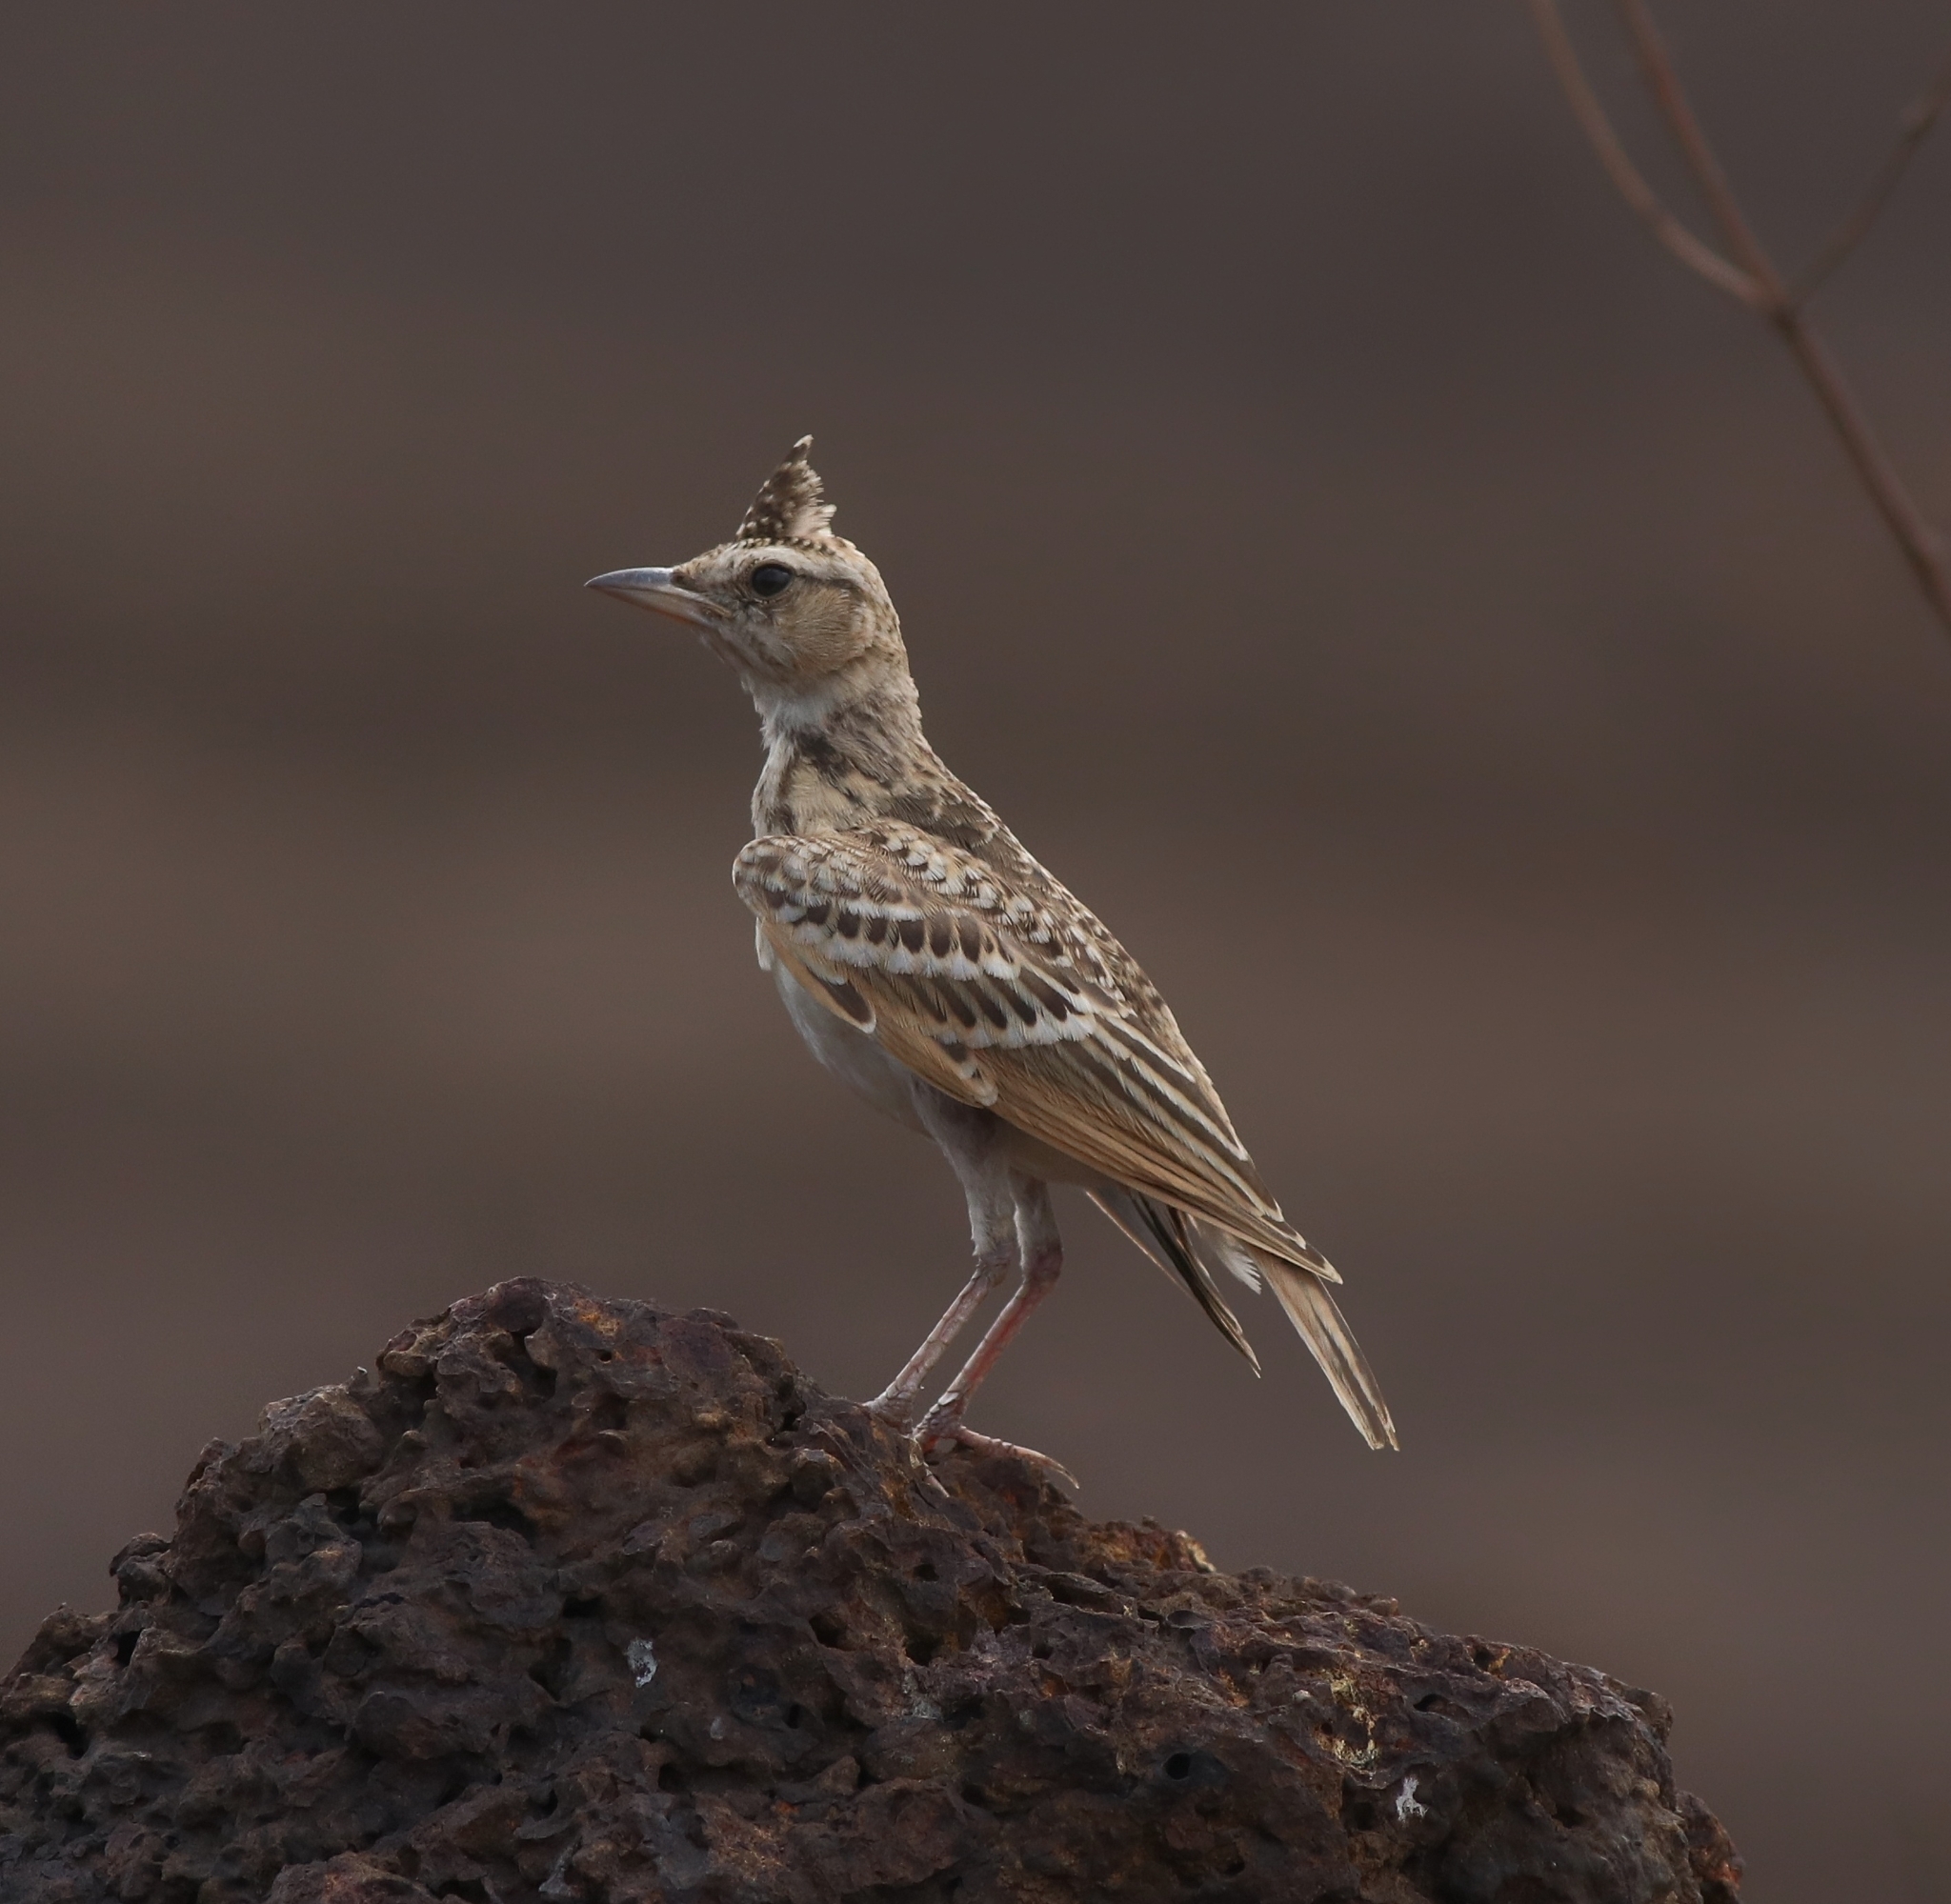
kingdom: Animalia
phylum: Chordata
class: Aves
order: Passeriformes
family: Alaudidae
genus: Galerida
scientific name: Galerida malabarica
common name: Malabar lark
